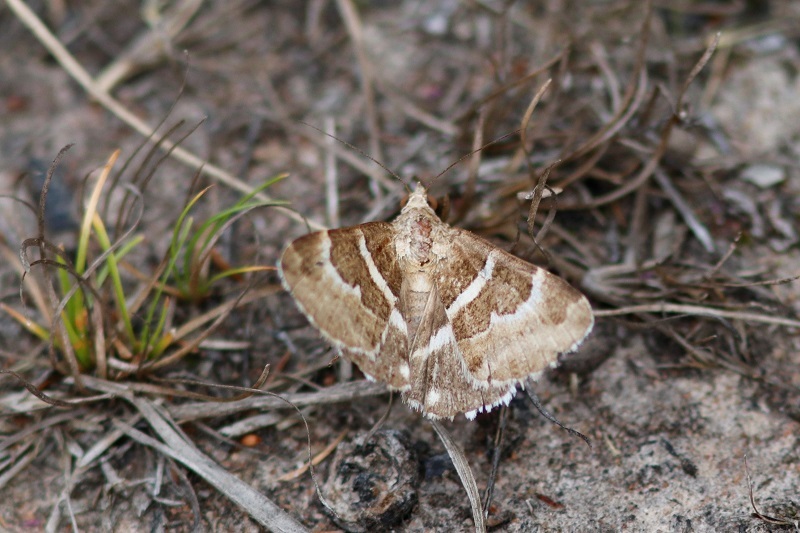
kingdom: Animalia
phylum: Arthropoda
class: Insecta
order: Lepidoptera
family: Erebidae
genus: Grammodes
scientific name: Grammodes stolida
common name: Geometrician
